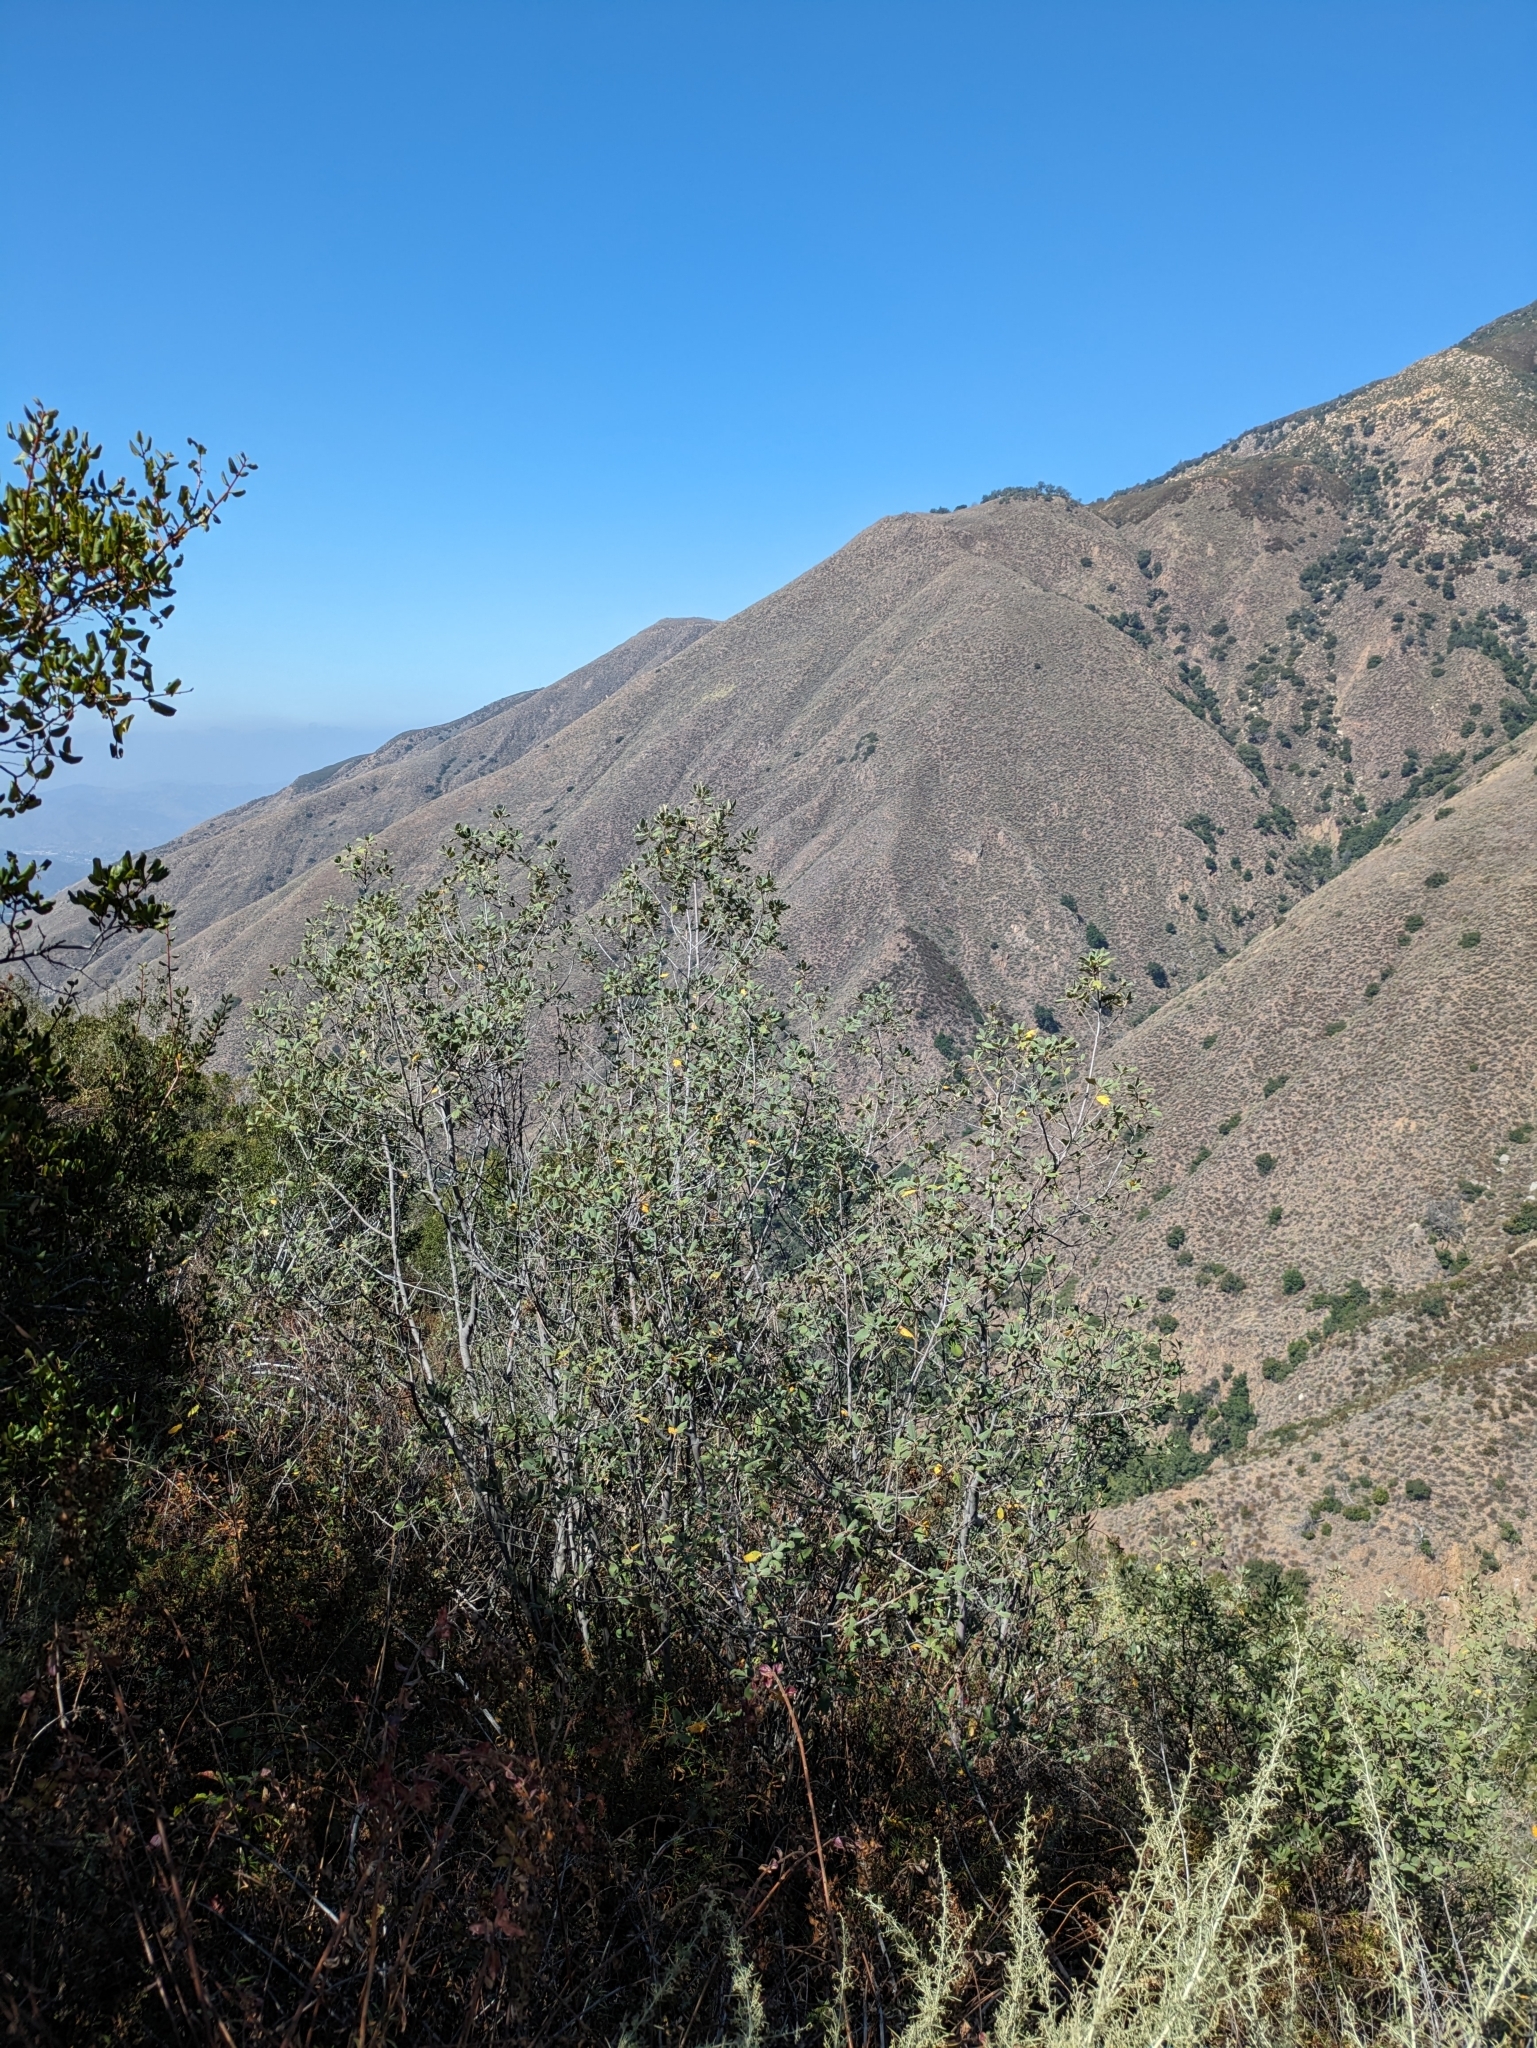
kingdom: Plantae
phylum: Tracheophyta
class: Magnoliopsida
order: Rosales
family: Rhamnaceae
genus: Frangula
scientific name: Frangula californica
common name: California buckthorn
